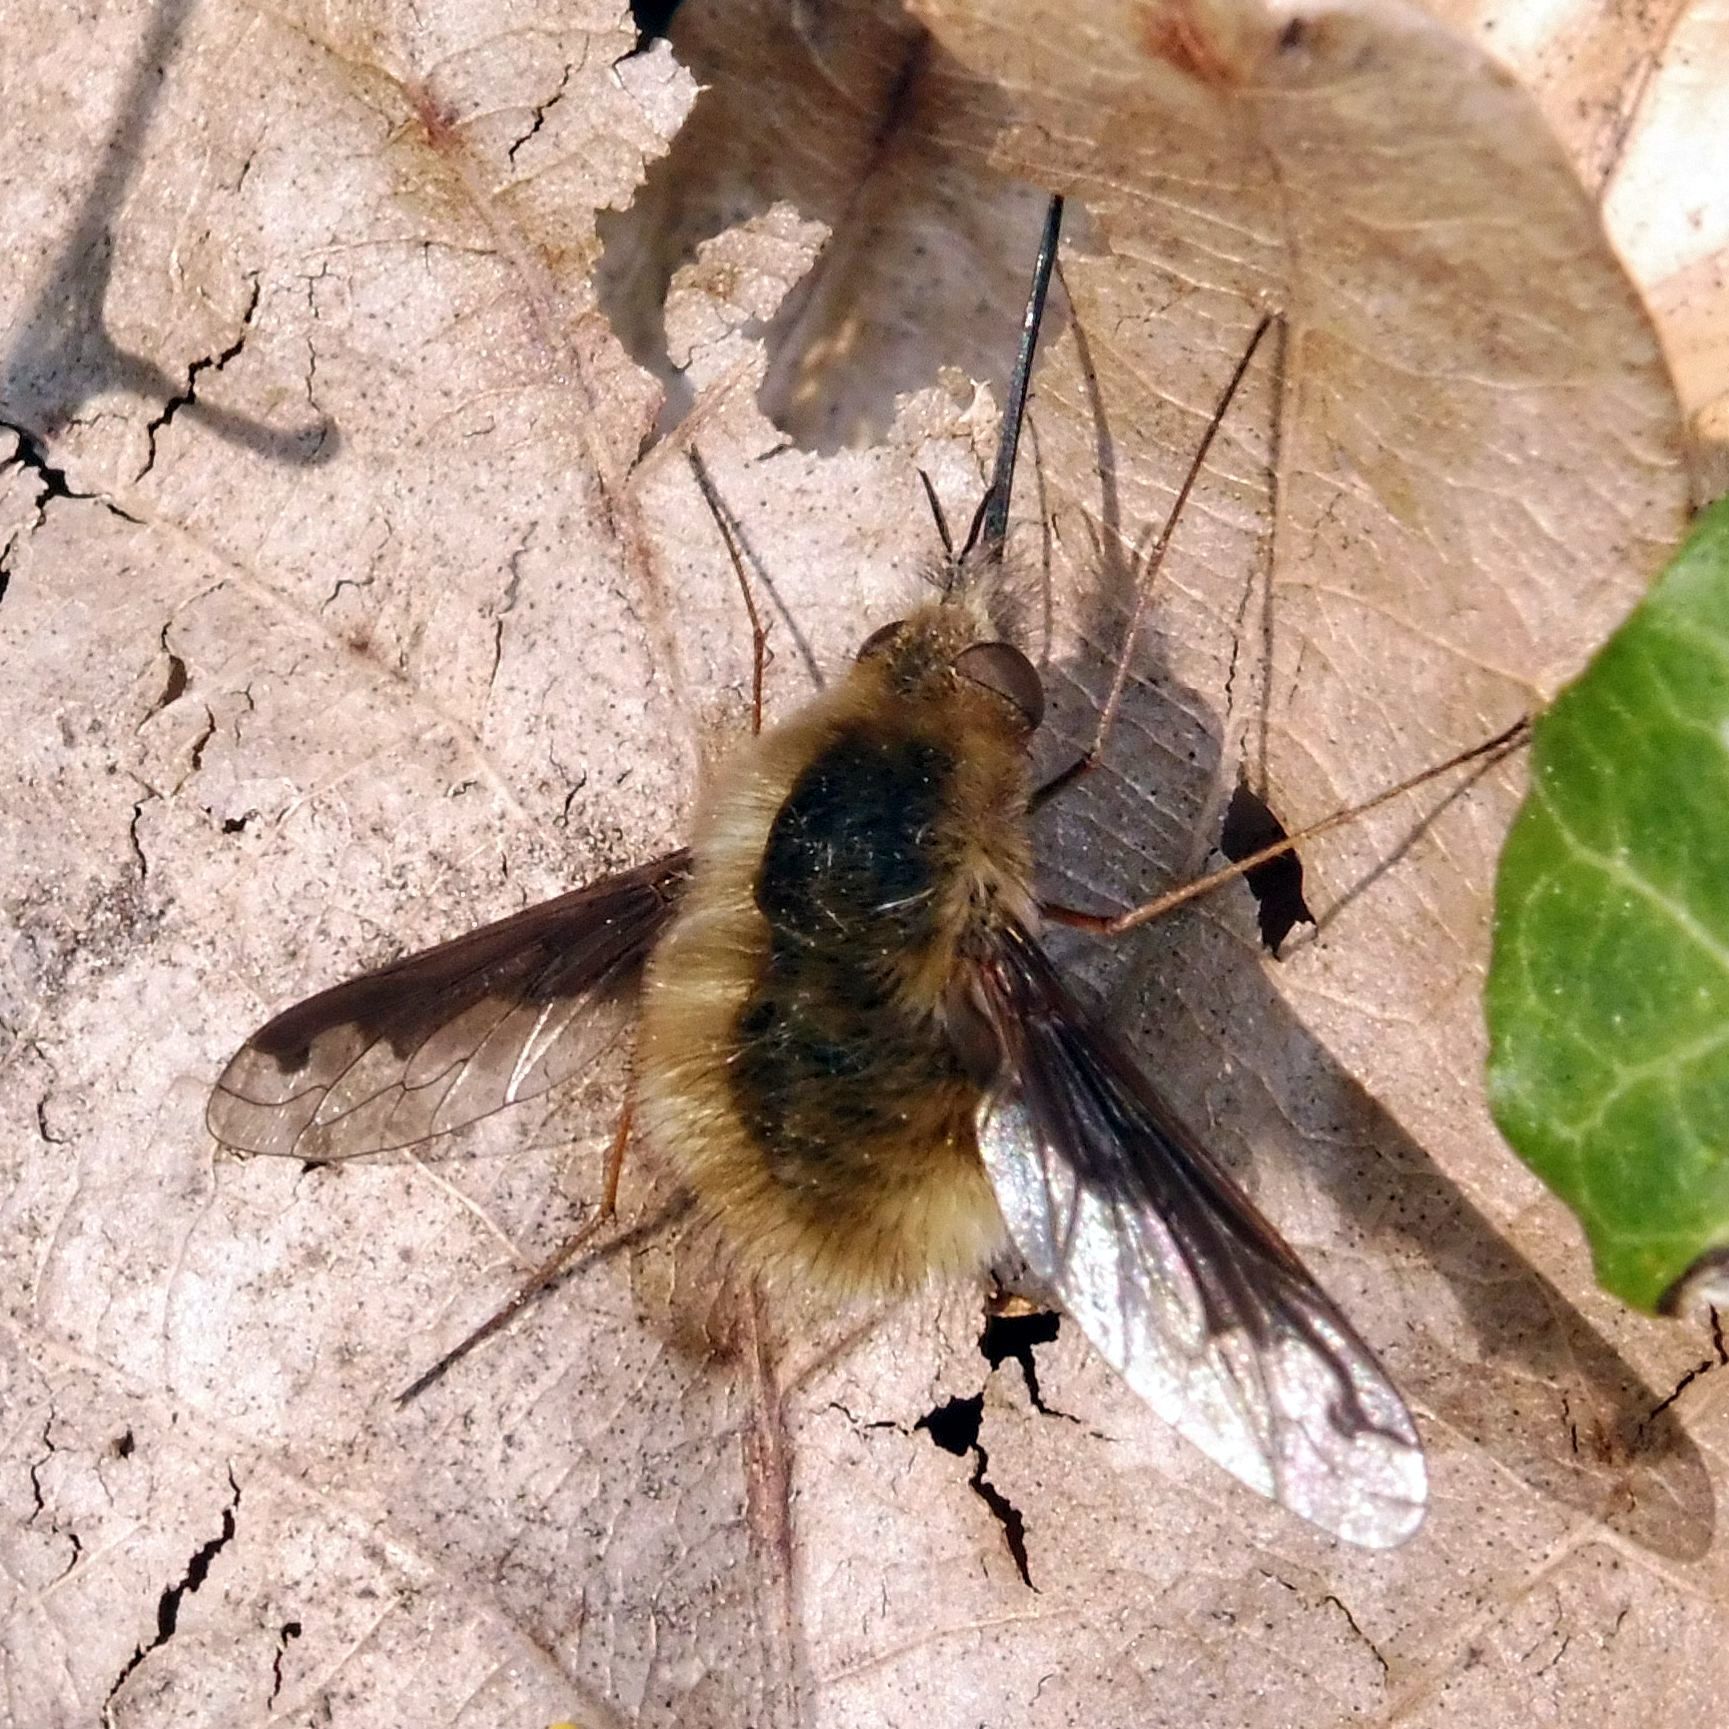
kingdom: Animalia
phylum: Arthropoda
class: Insecta
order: Diptera
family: Bombyliidae
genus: Bombylius
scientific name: Bombylius major
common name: Bee fly
